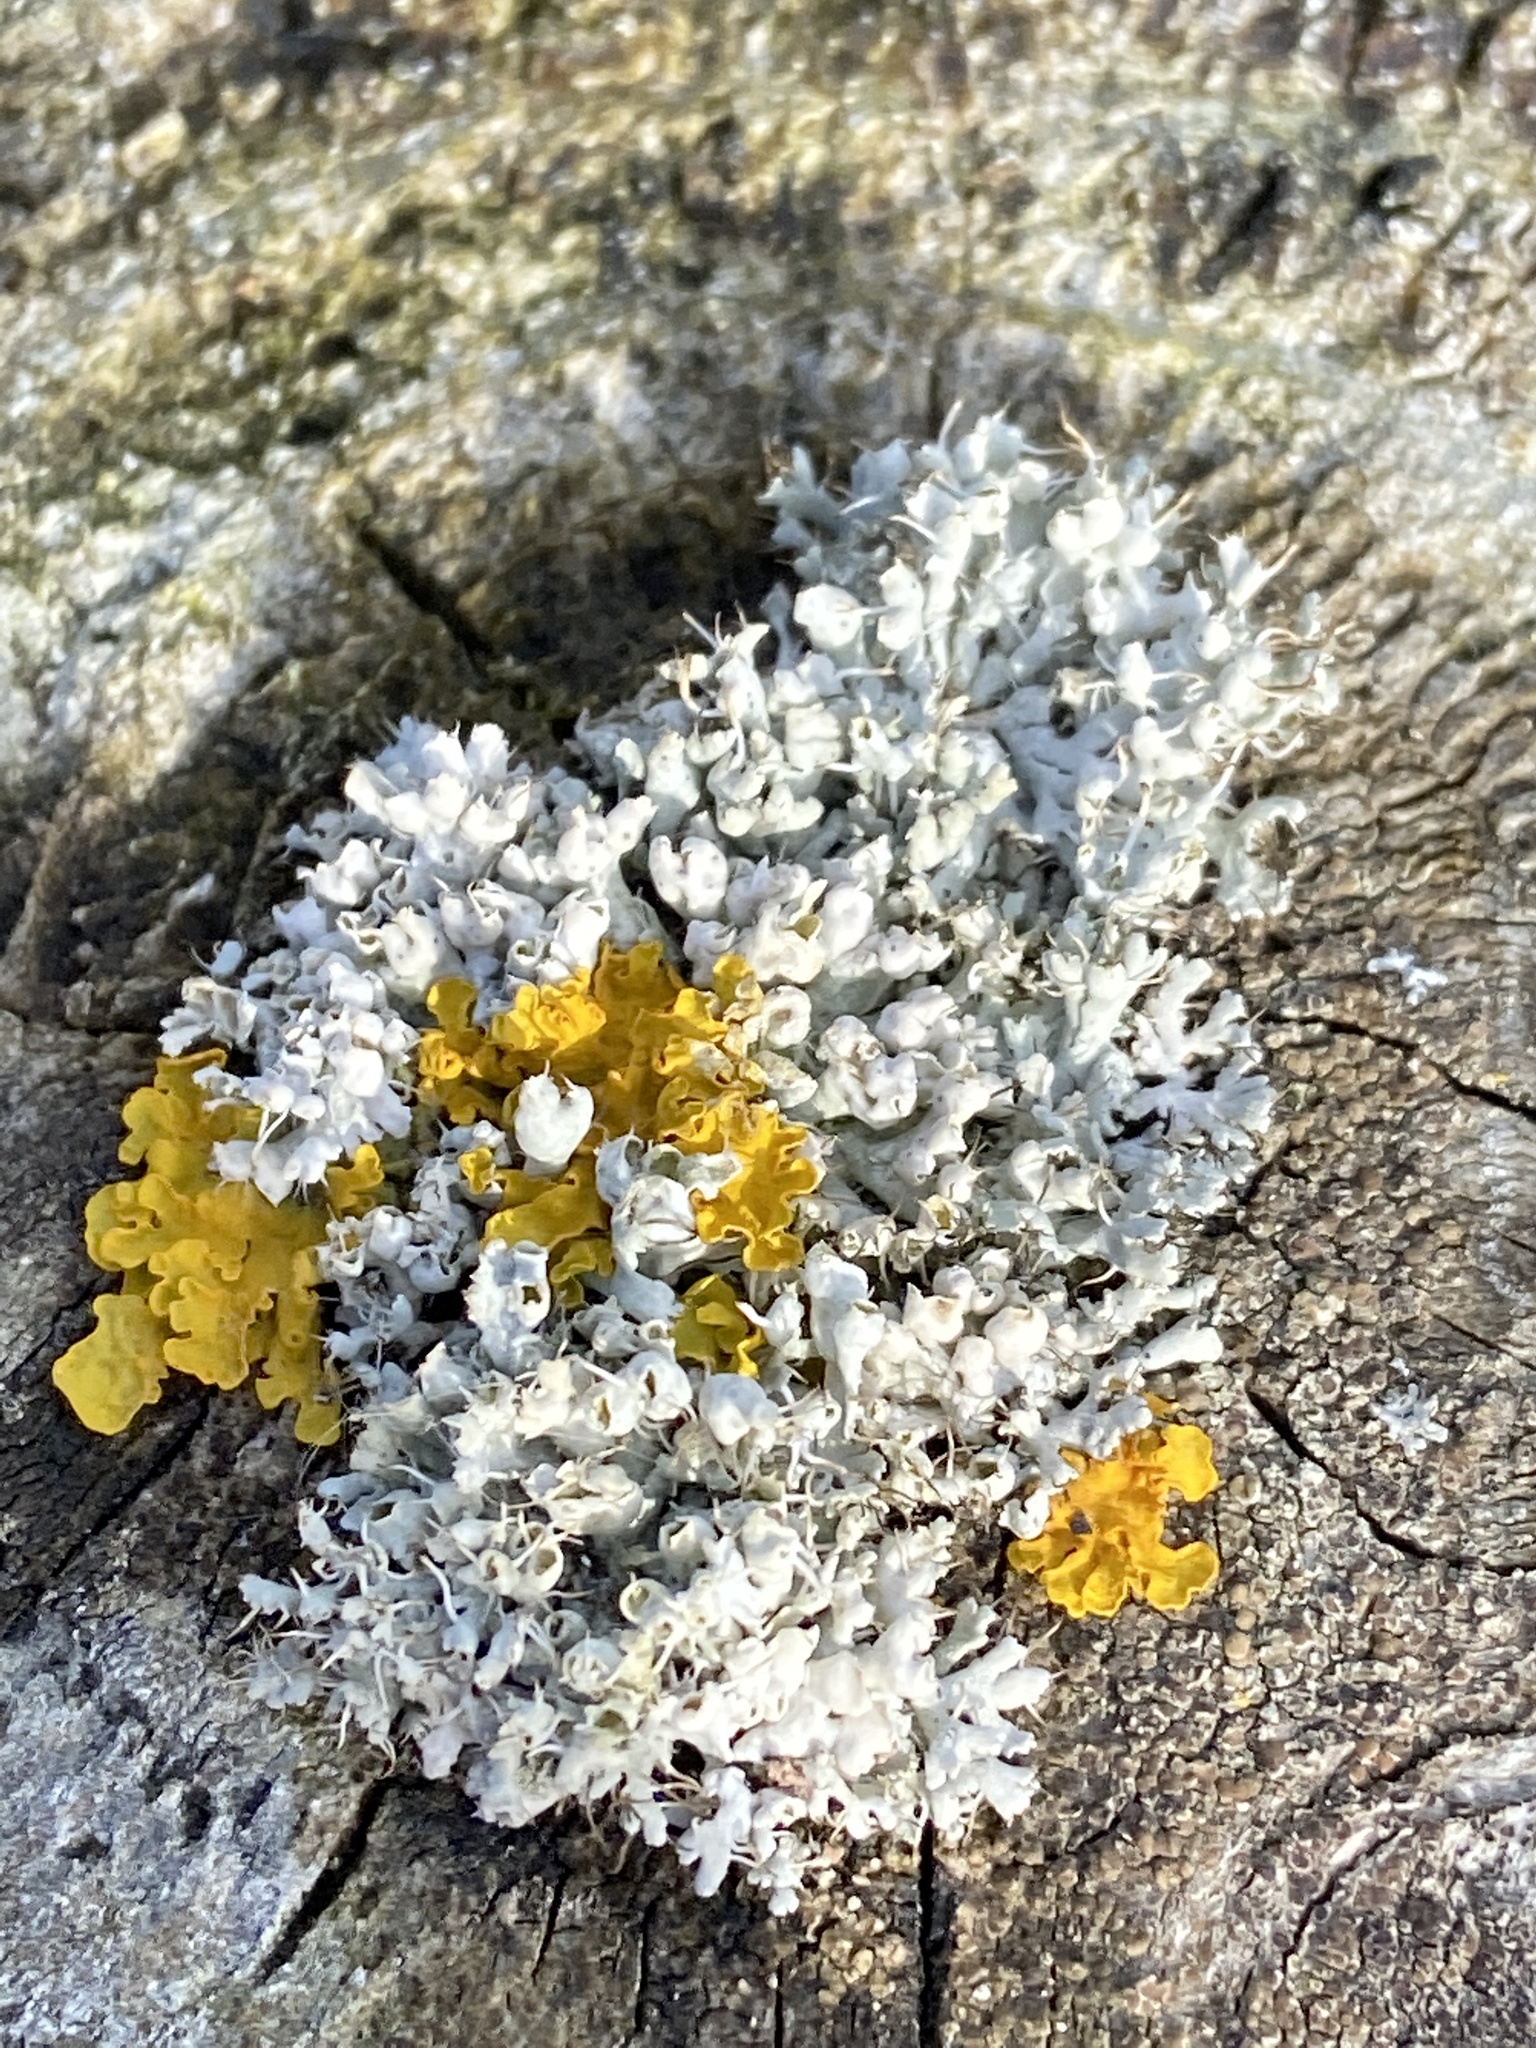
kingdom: Fungi
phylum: Ascomycota
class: Lecanoromycetes
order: Caliciales
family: Physciaceae
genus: Physcia
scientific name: Physcia adscendens
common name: Hooded rosette lichen
